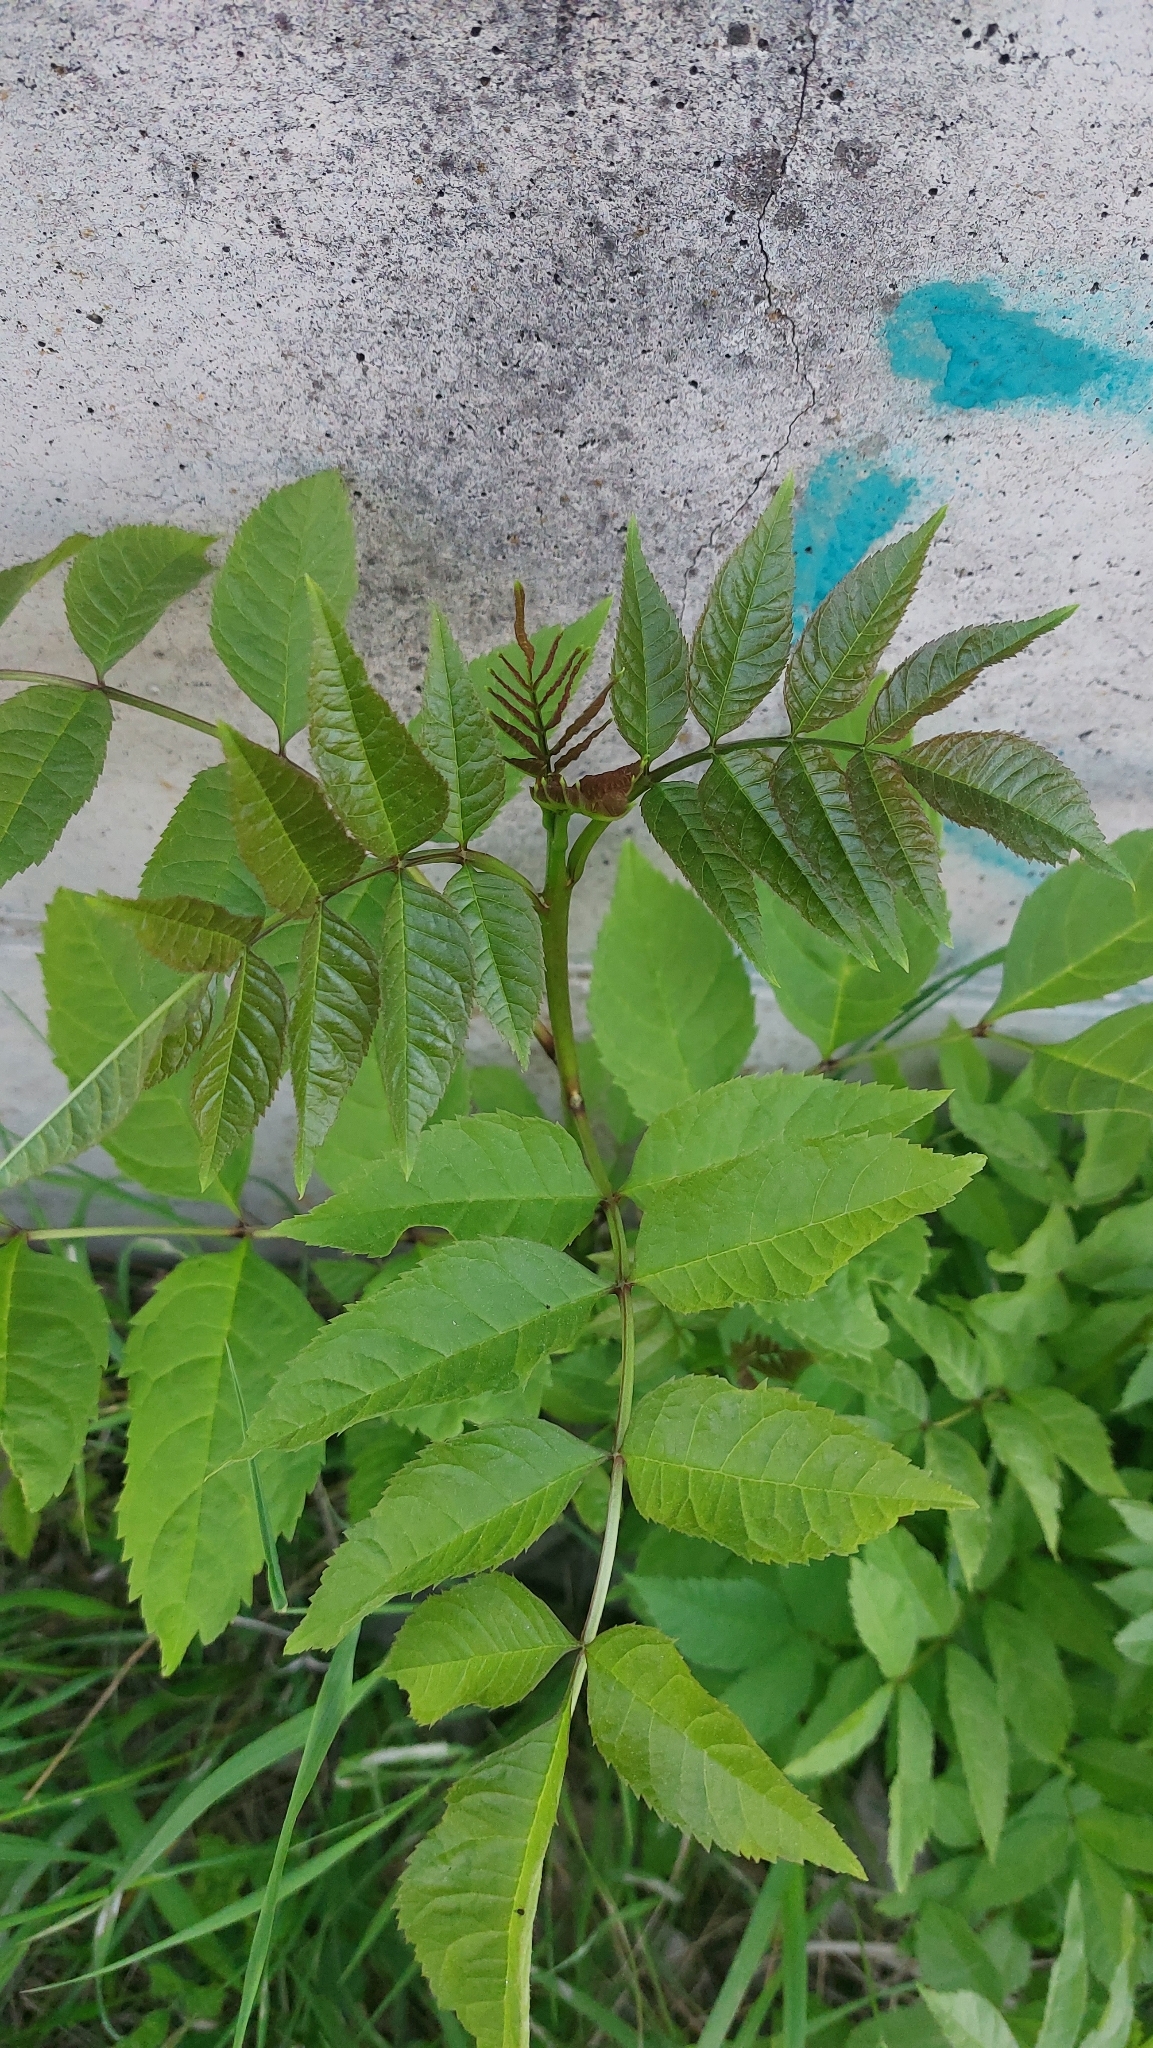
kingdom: Plantae
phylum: Tracheophyta
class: Magnoliopsida
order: Lamiales
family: Oleaceae
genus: Fraxinus
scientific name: Fraxinus excelsior
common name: European ash
